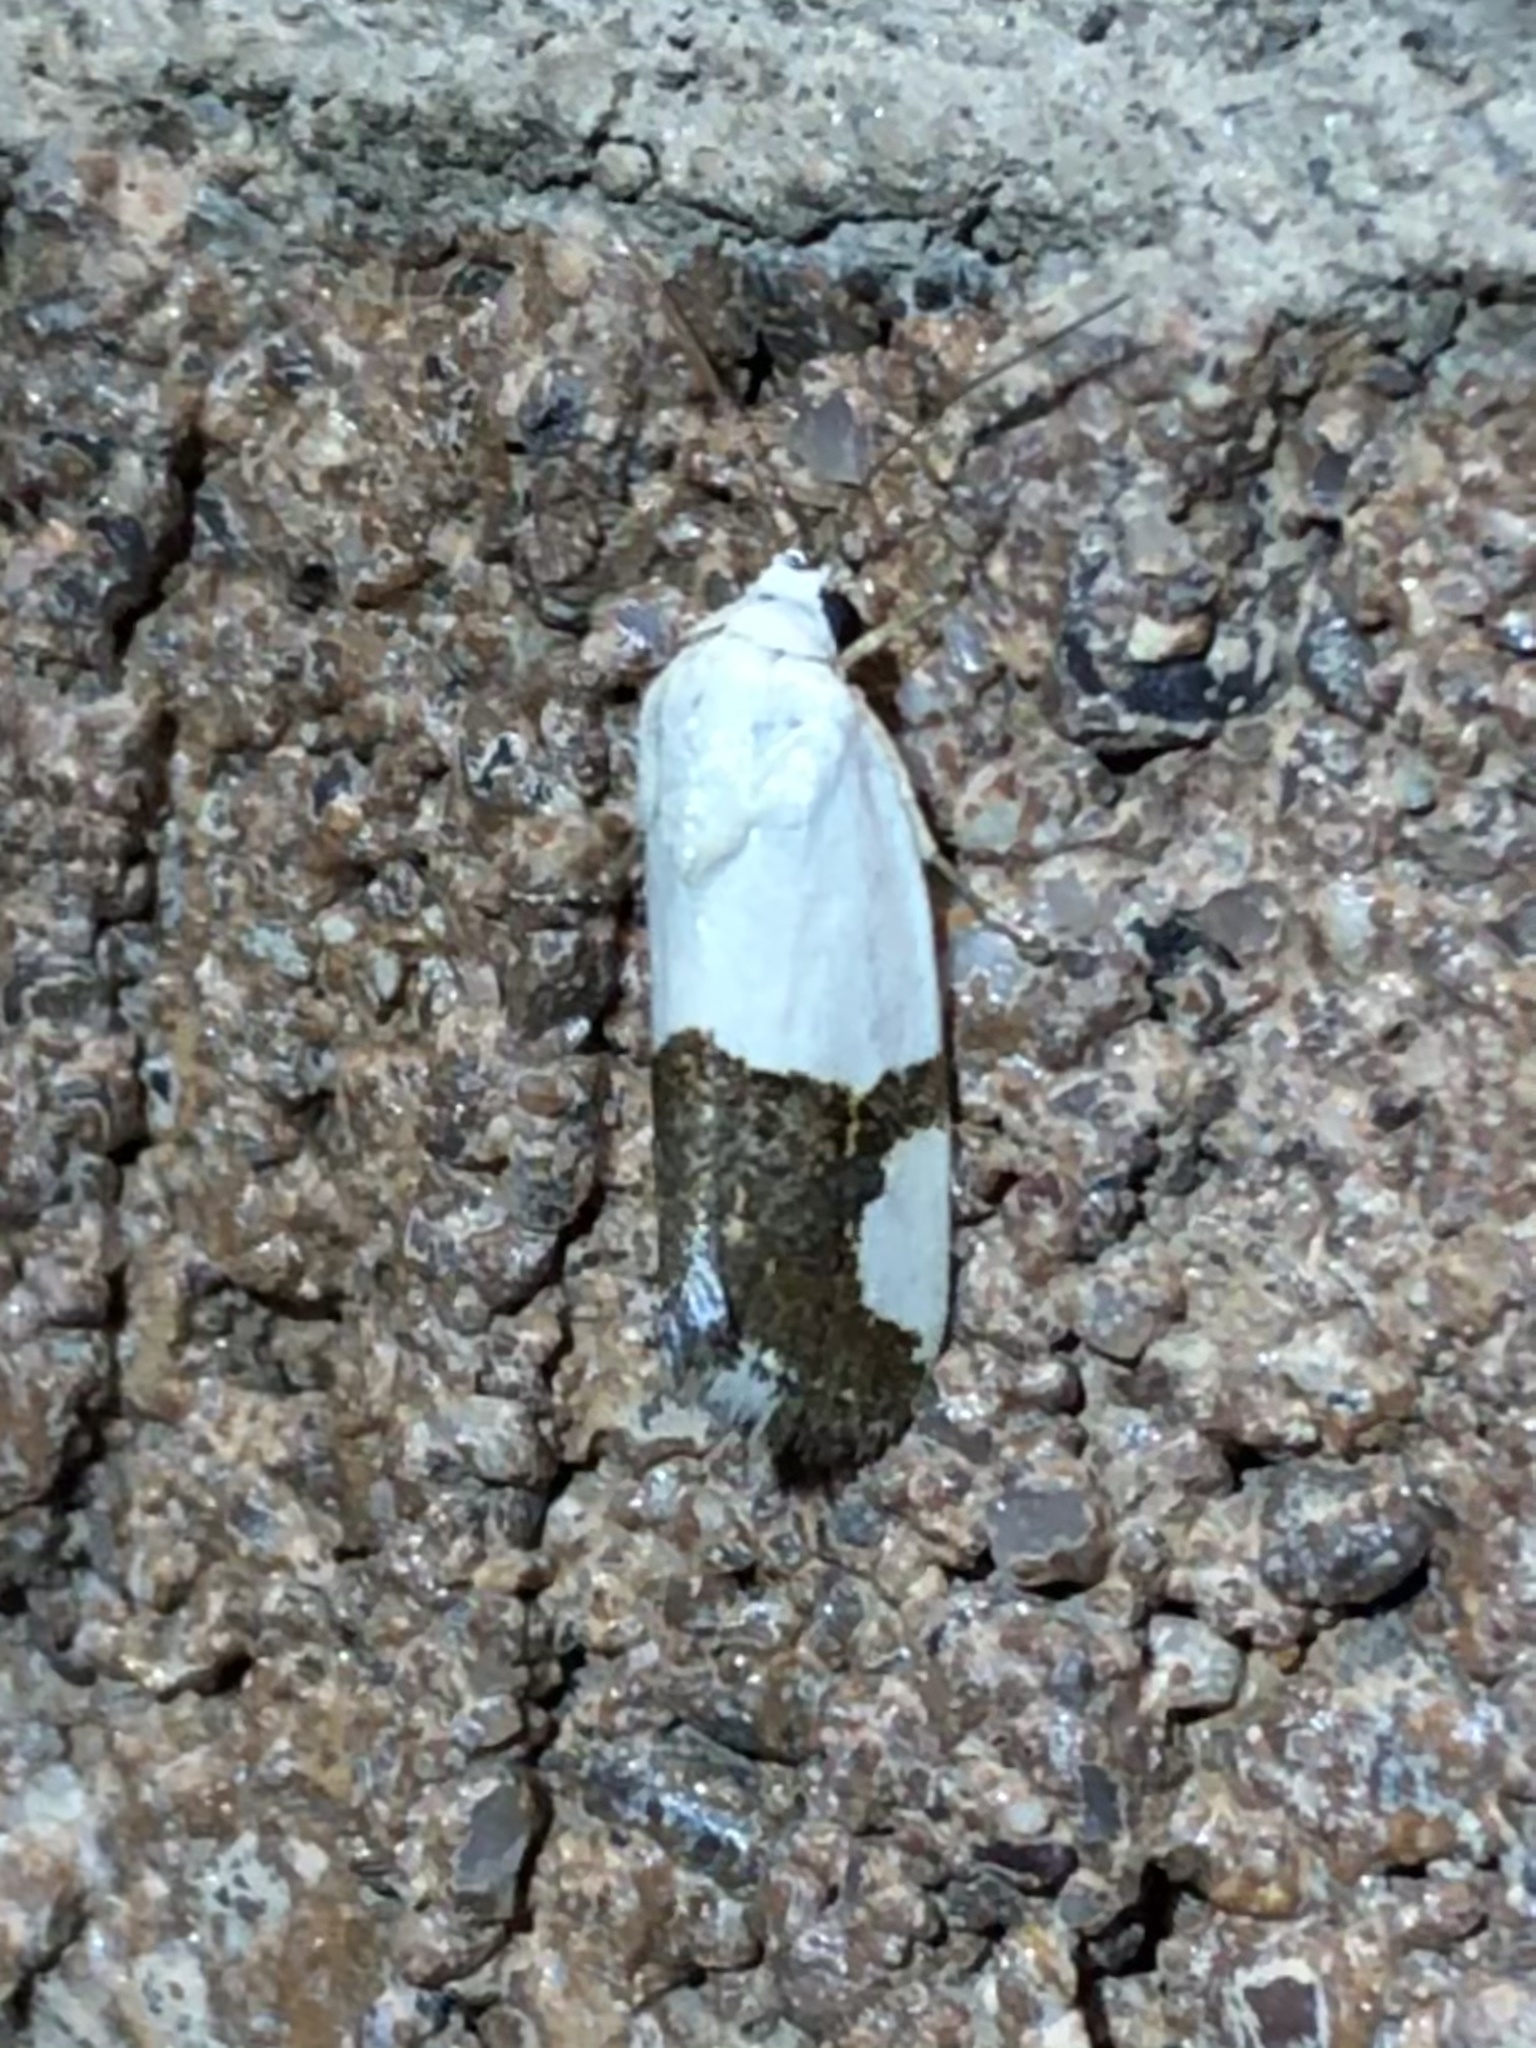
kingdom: Animalia
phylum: Arthropoda
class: Insecta
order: Lepidoptera
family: Noctuidae
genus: Acontia
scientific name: Acontia cuta
